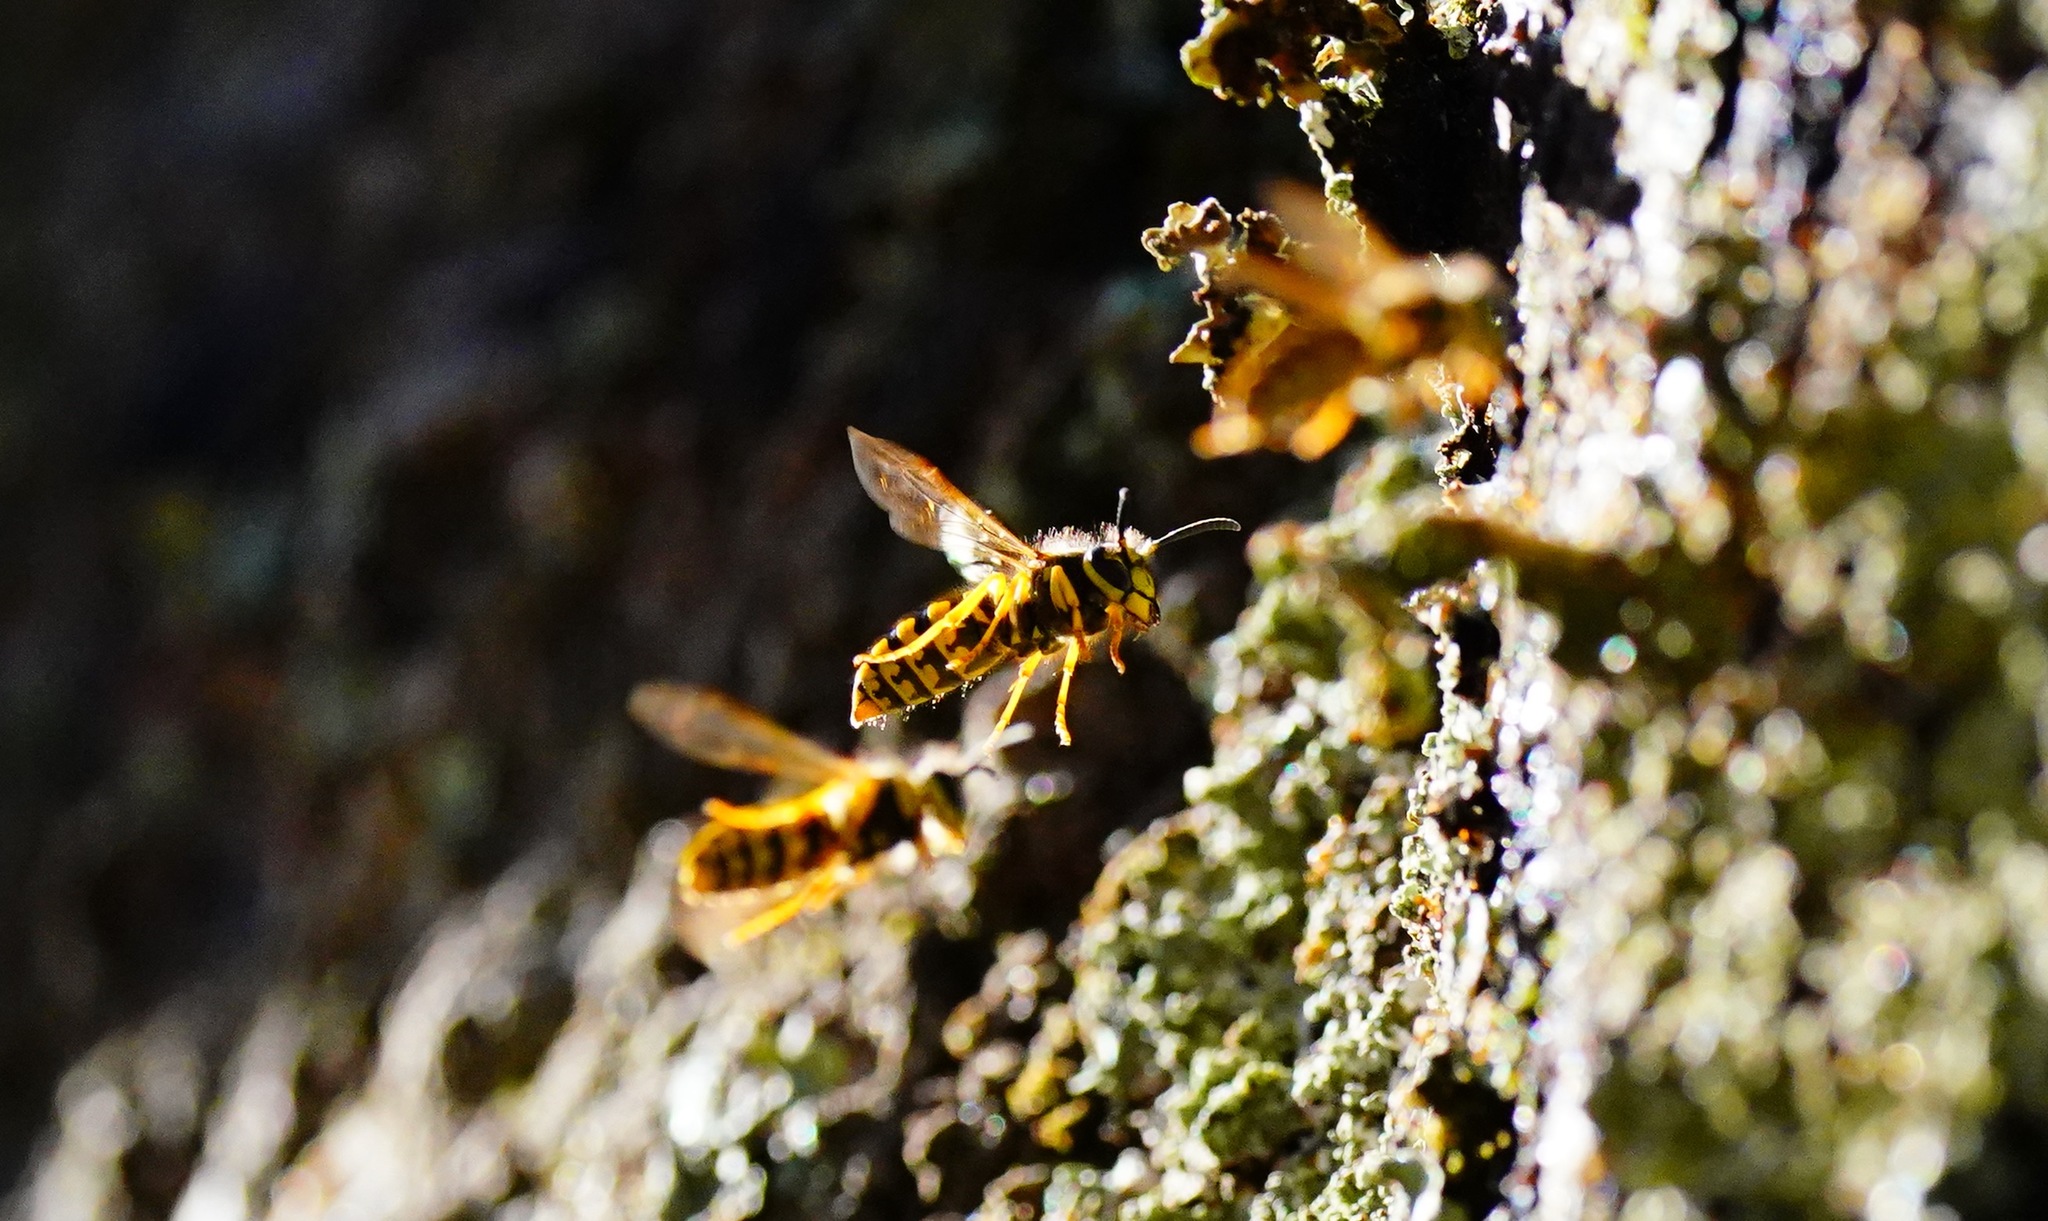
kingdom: Animalia
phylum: Arthropoda
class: Insecta
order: Hymenoptera
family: Vespidae
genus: Vespula
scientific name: Vespula pensylvanica
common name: Western yellowjacket
